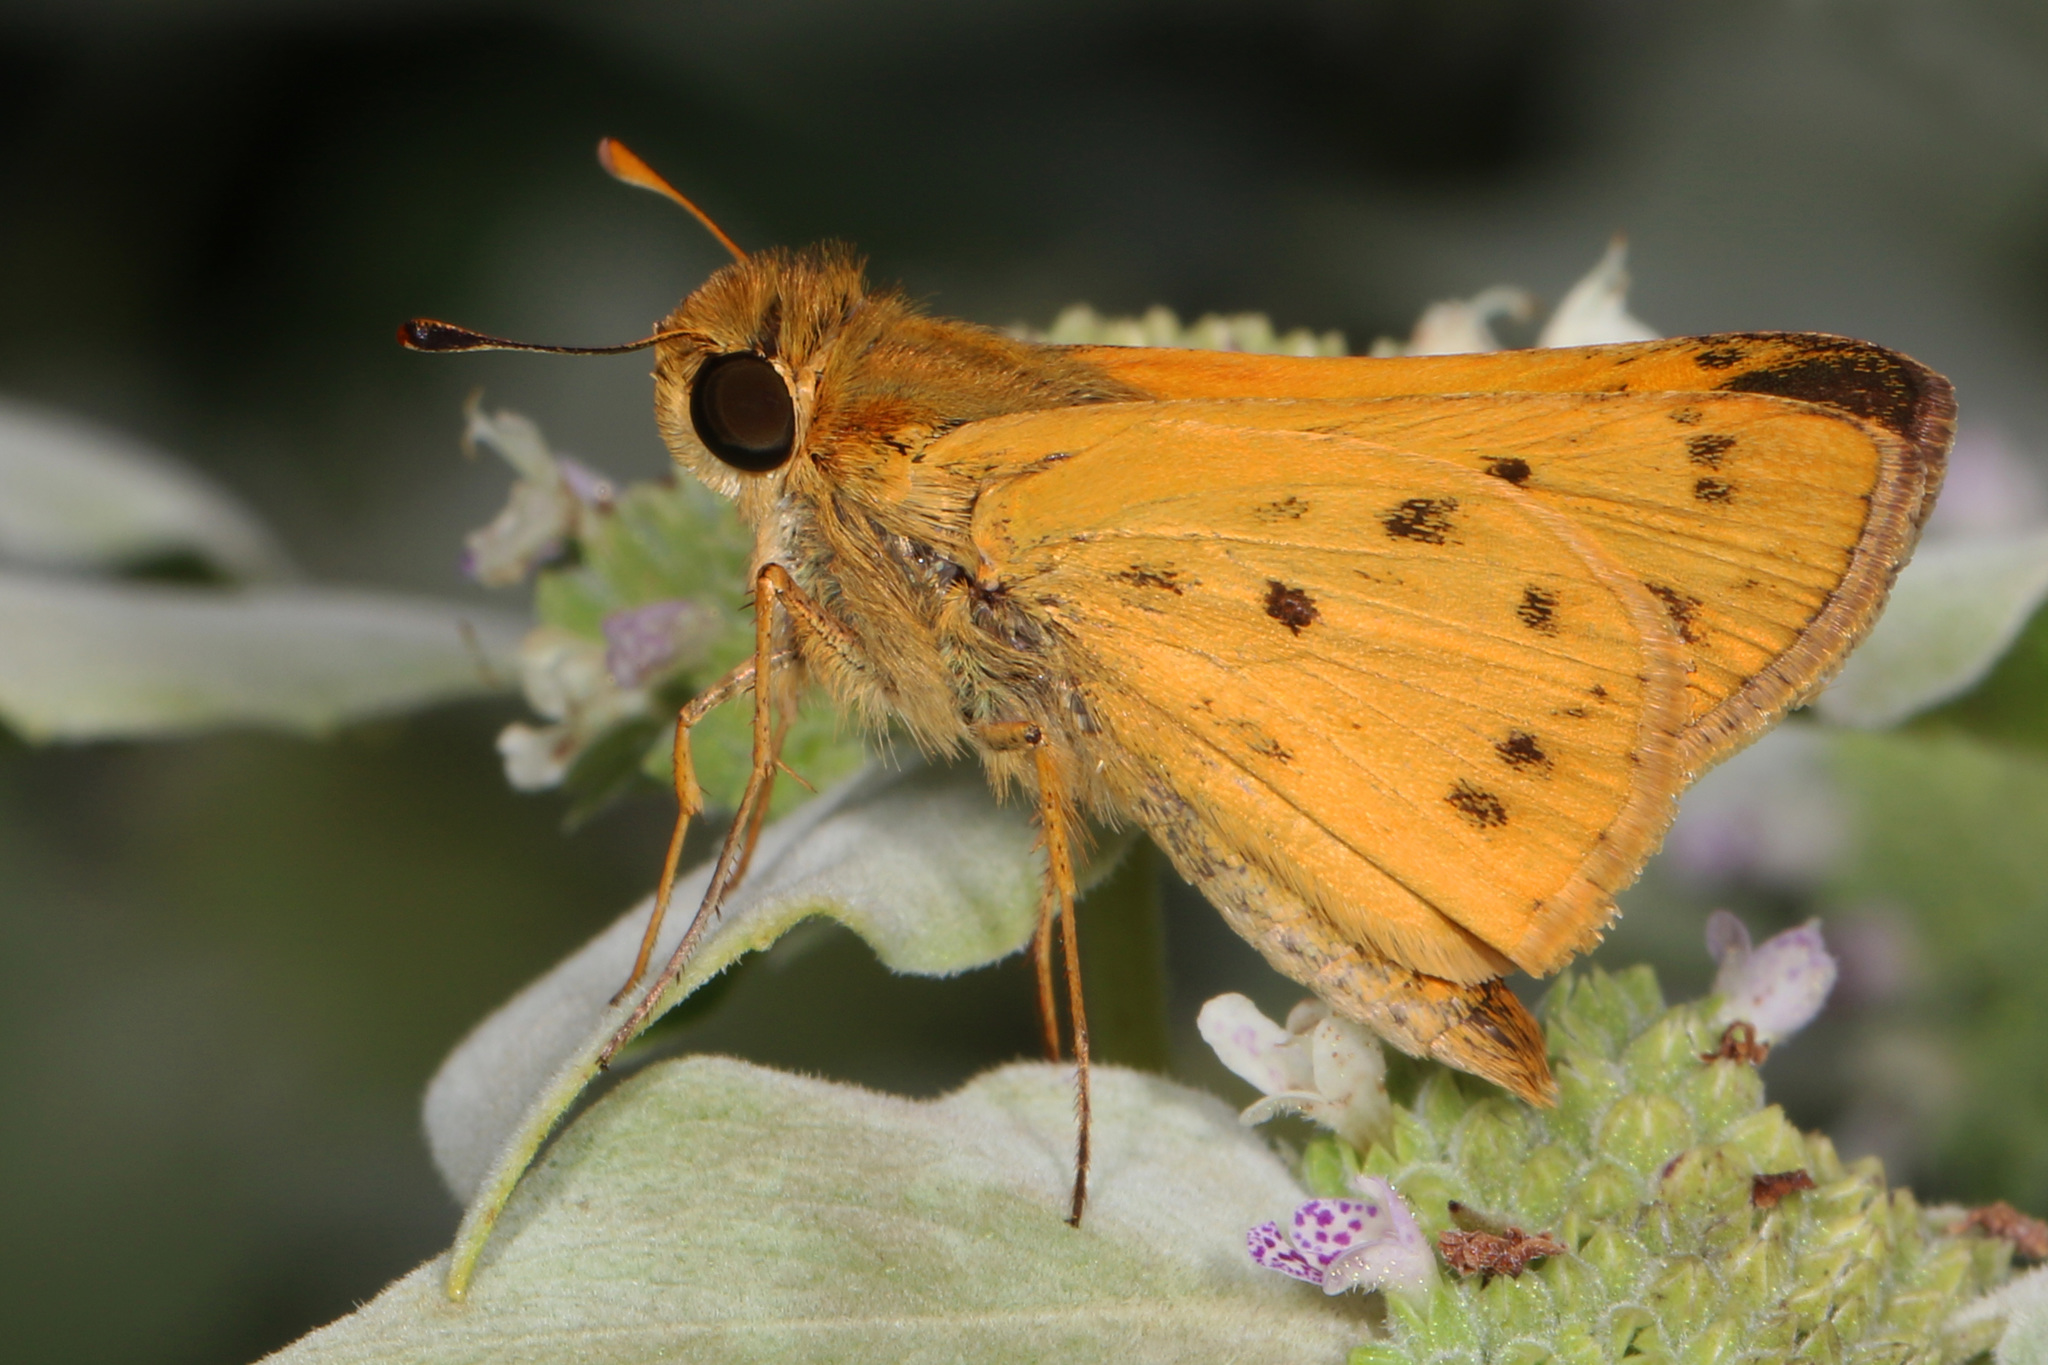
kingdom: Animalia
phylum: Arthropoda
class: Insecta
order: Lepidoptera
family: Hesperiidae
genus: Hylephila
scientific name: Hylephila phyleus
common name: Fiery skipper
